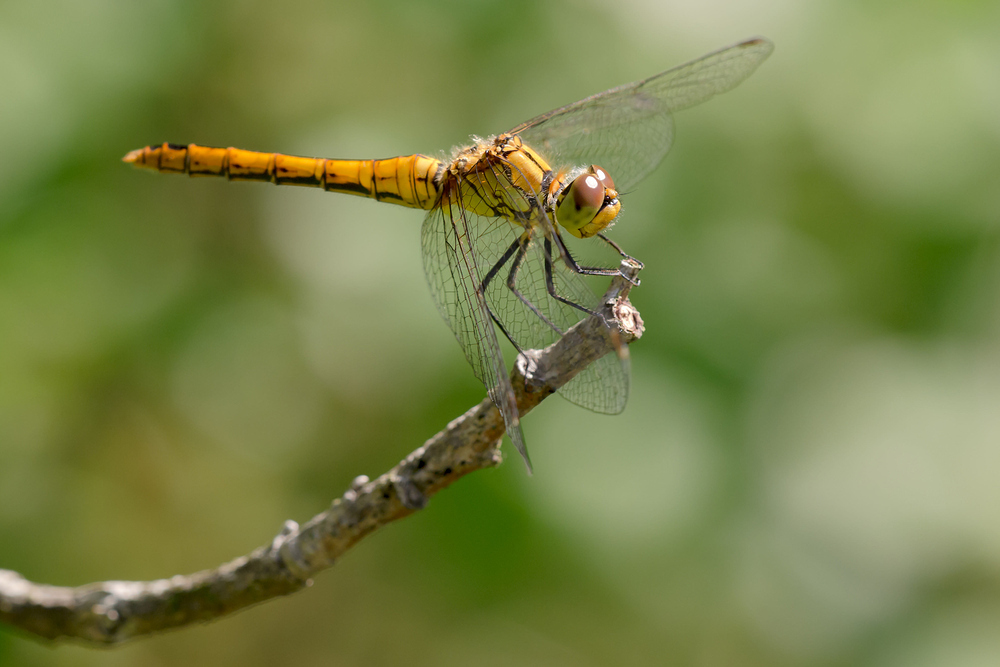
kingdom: Animalia
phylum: Arthropoda
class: Insecta
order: Odonata
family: Libellulidae
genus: Sympetrum
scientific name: Sympetrum sanguineum
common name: Ruddy darter
